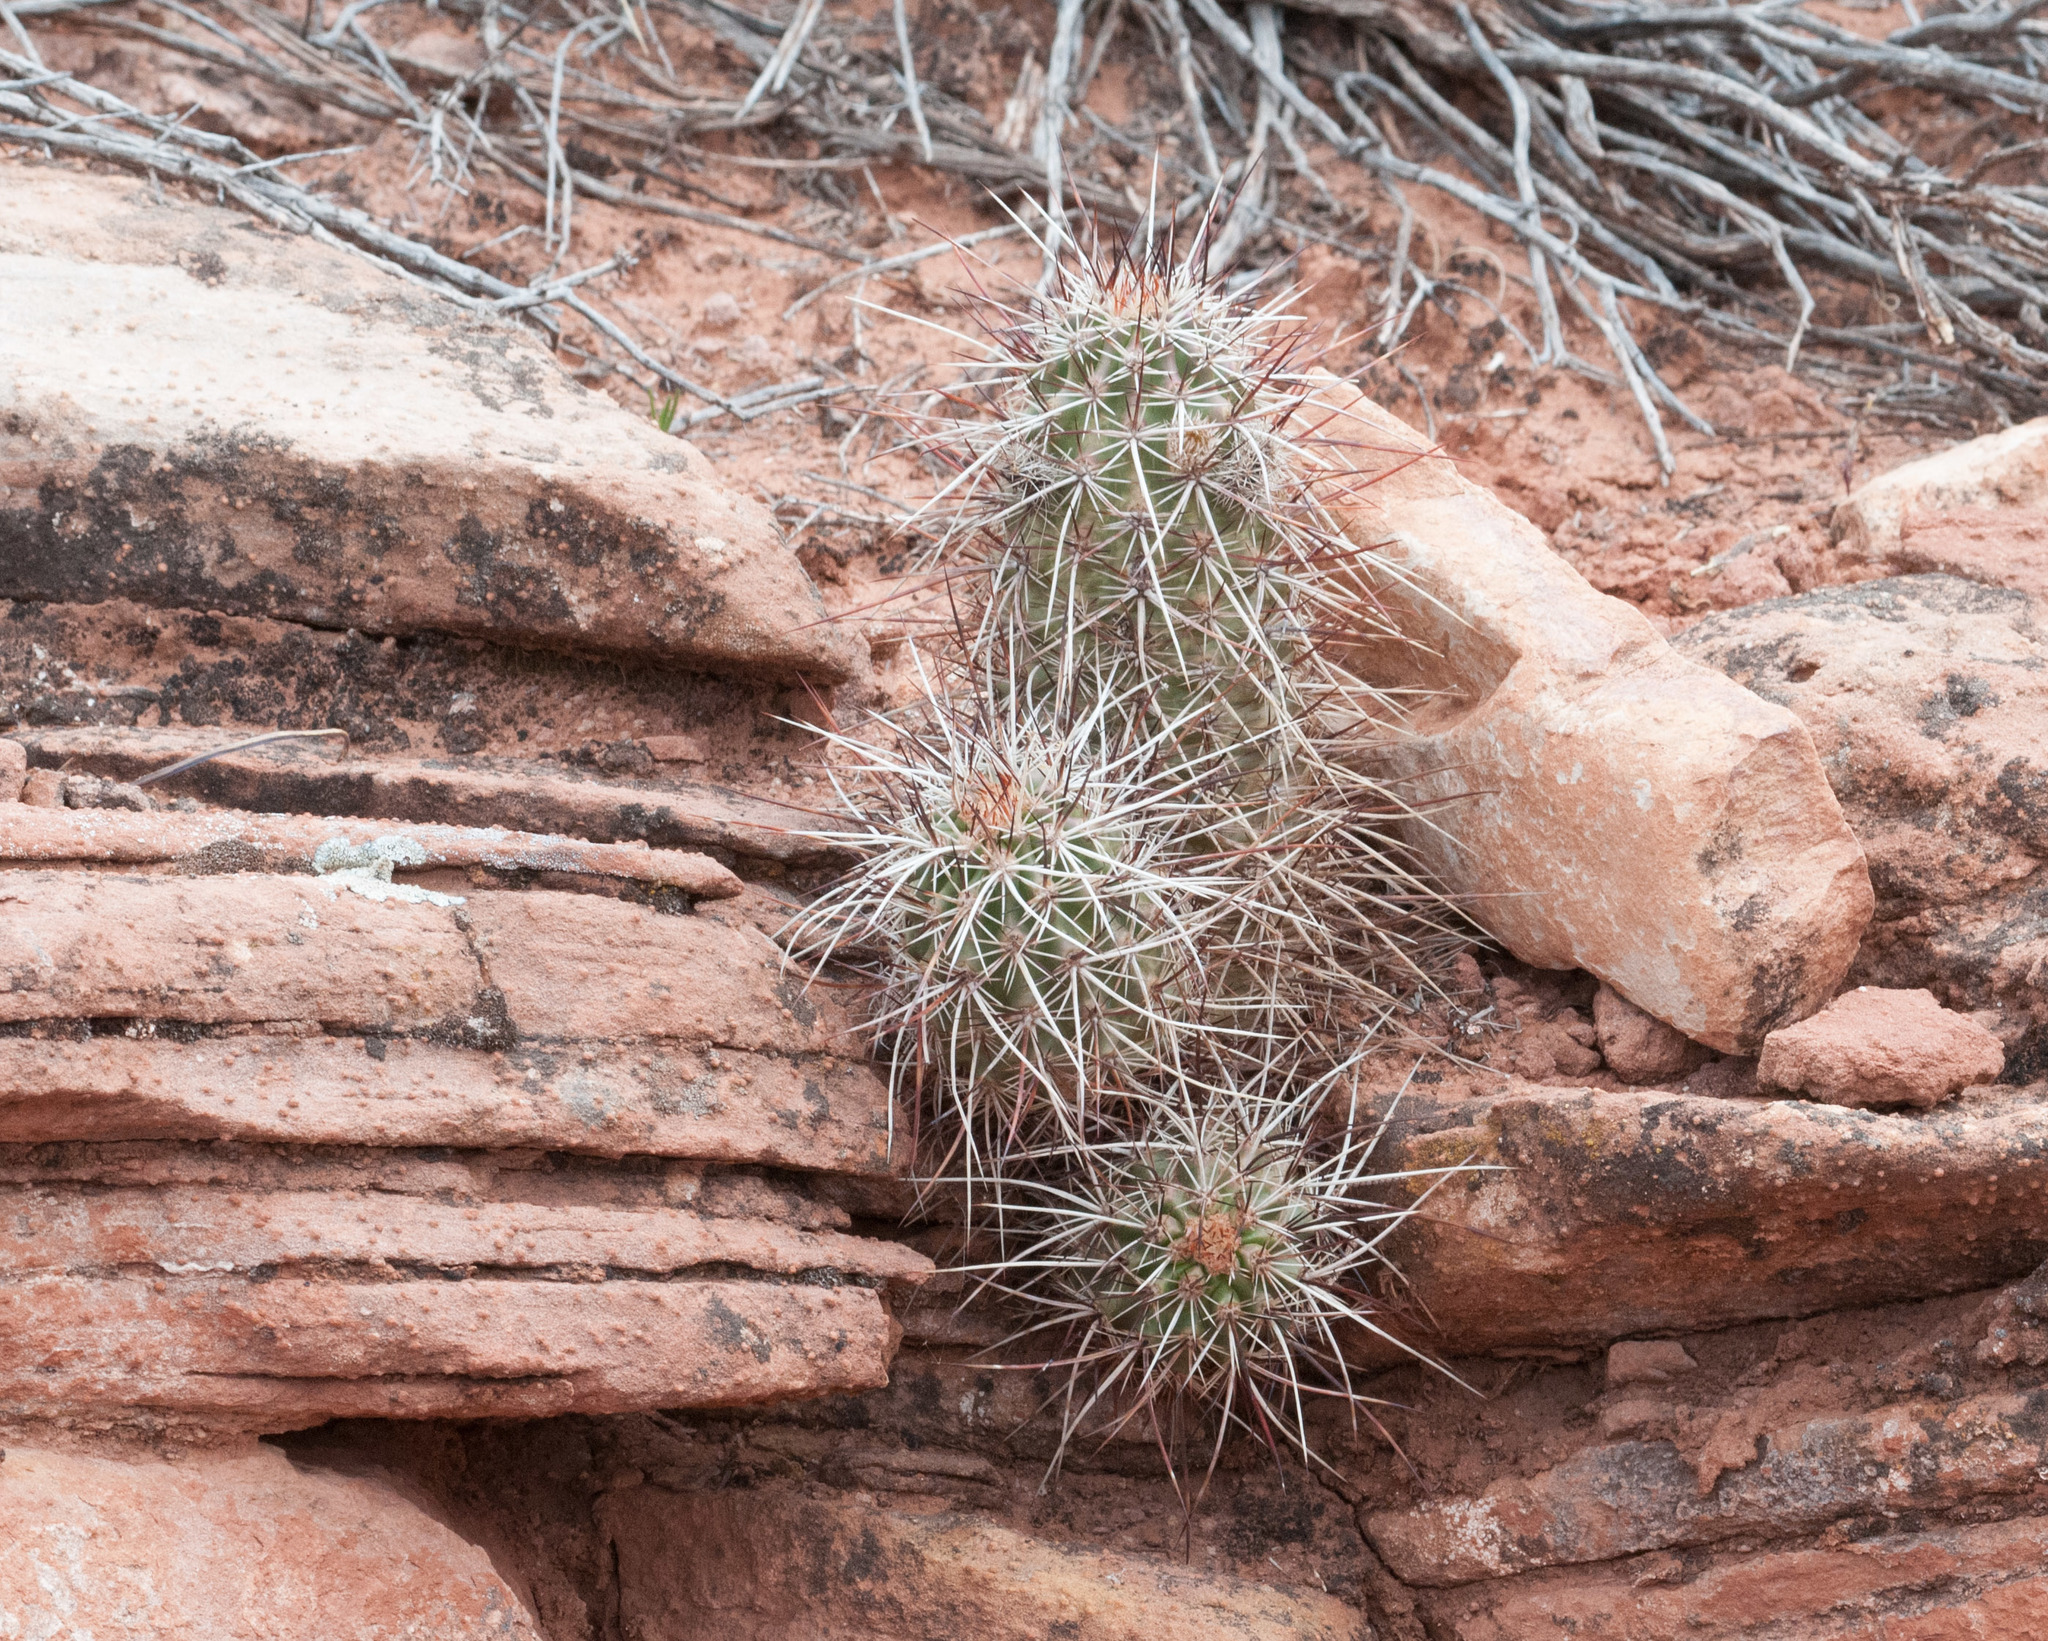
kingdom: Plantae
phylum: Tracheophyta
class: Magnoliopsida
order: Caryophyllales
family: Cactaceae
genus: Echinocereus
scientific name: Echinocereus engelmannii
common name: Engelmann's hedgehog cactus
